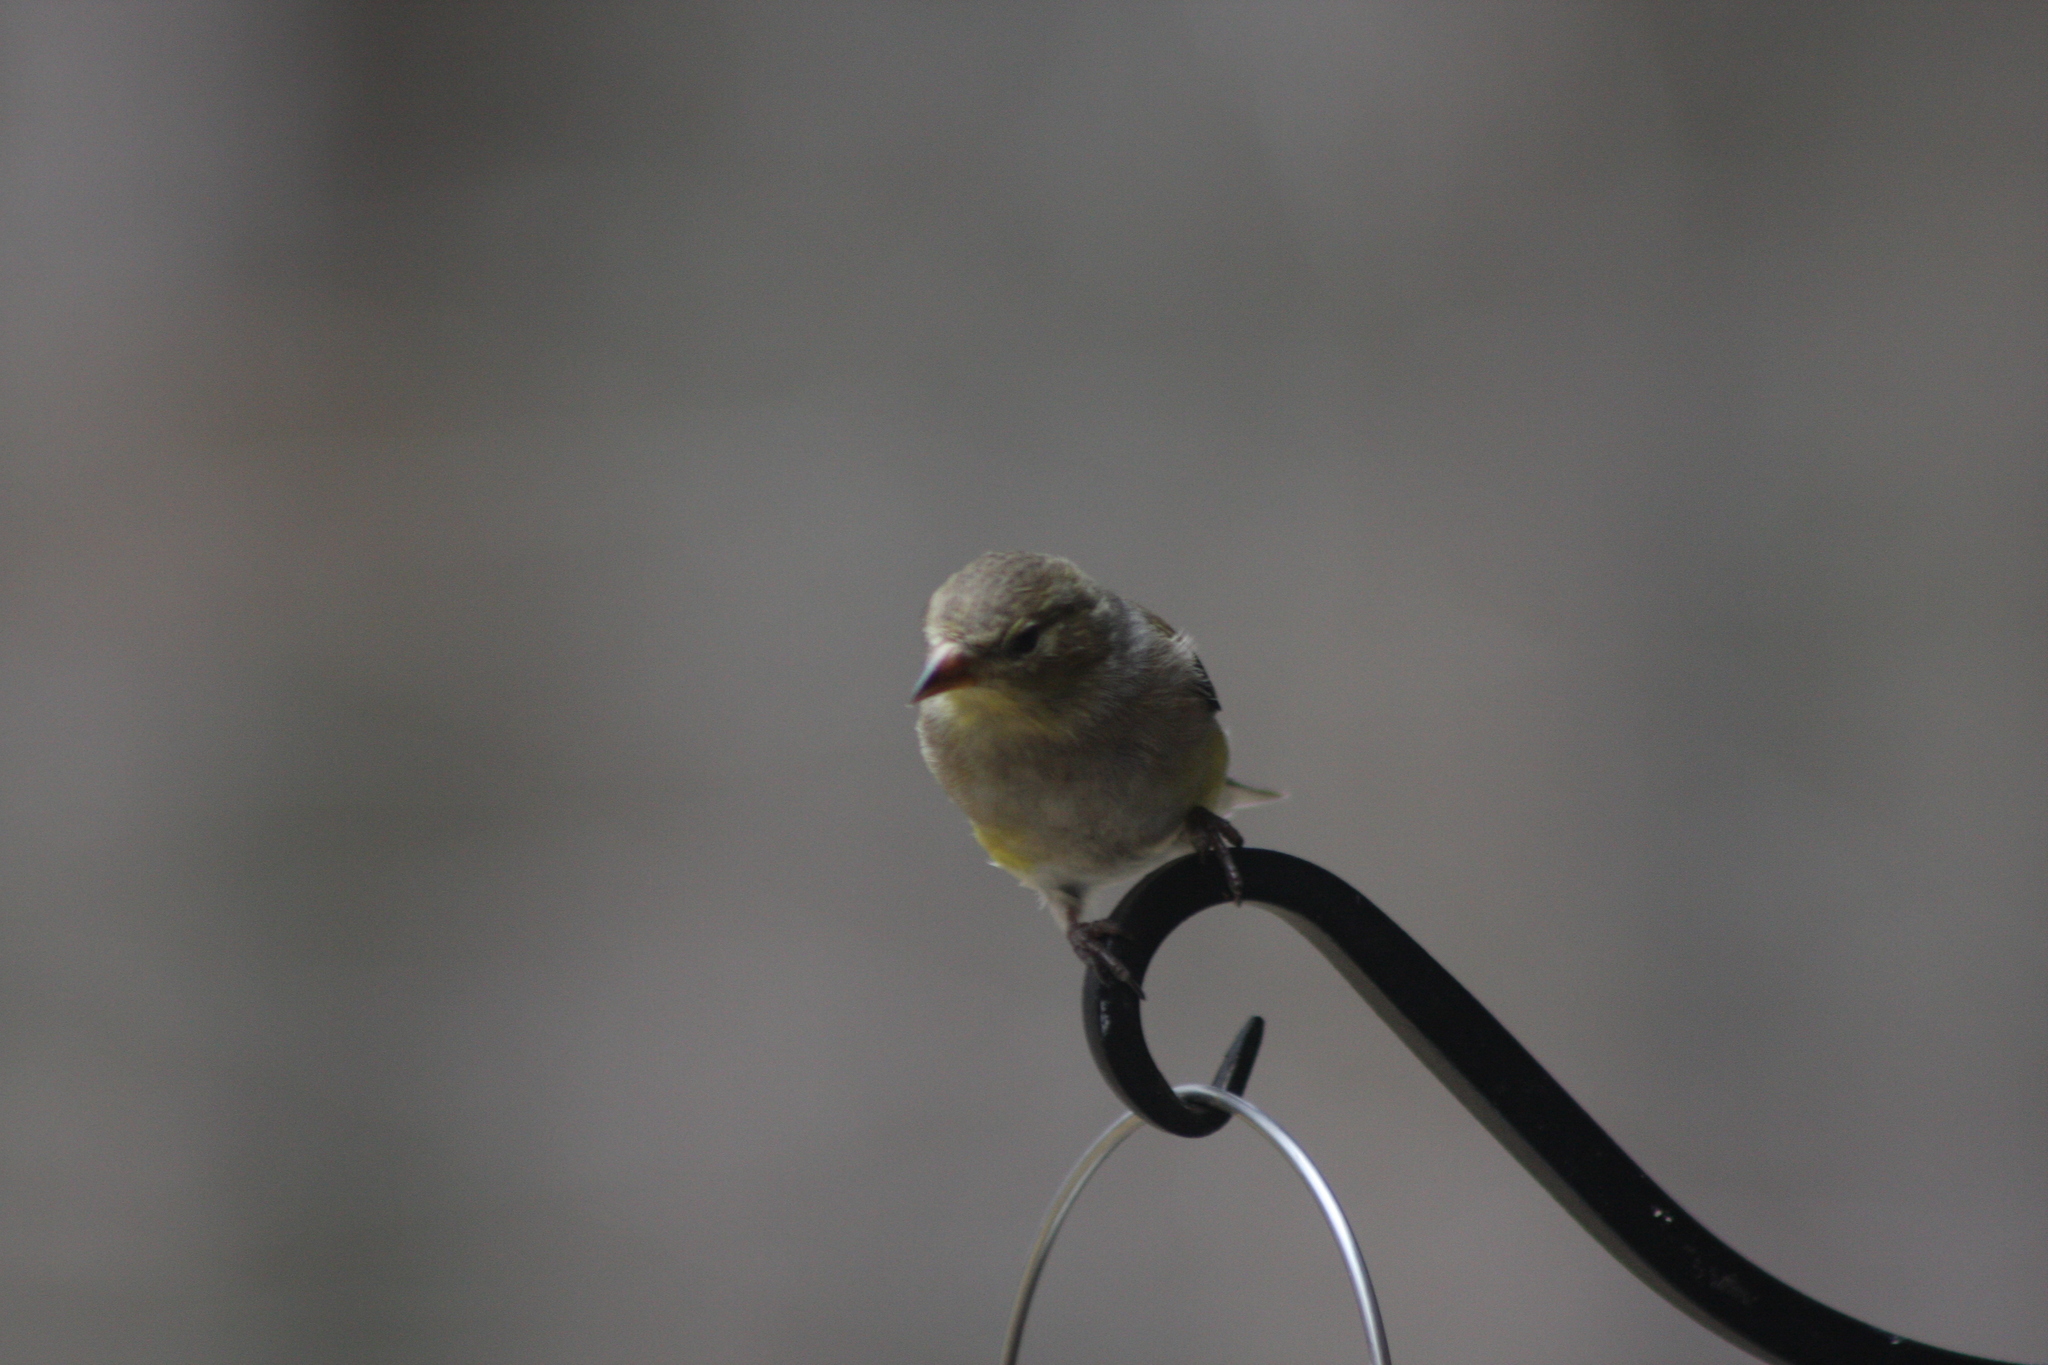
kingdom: Animalia
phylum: Chordata
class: Aves
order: Passeriformes
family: Fringillidae
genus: Spinus
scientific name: Spinus tristis
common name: American goldfinch
